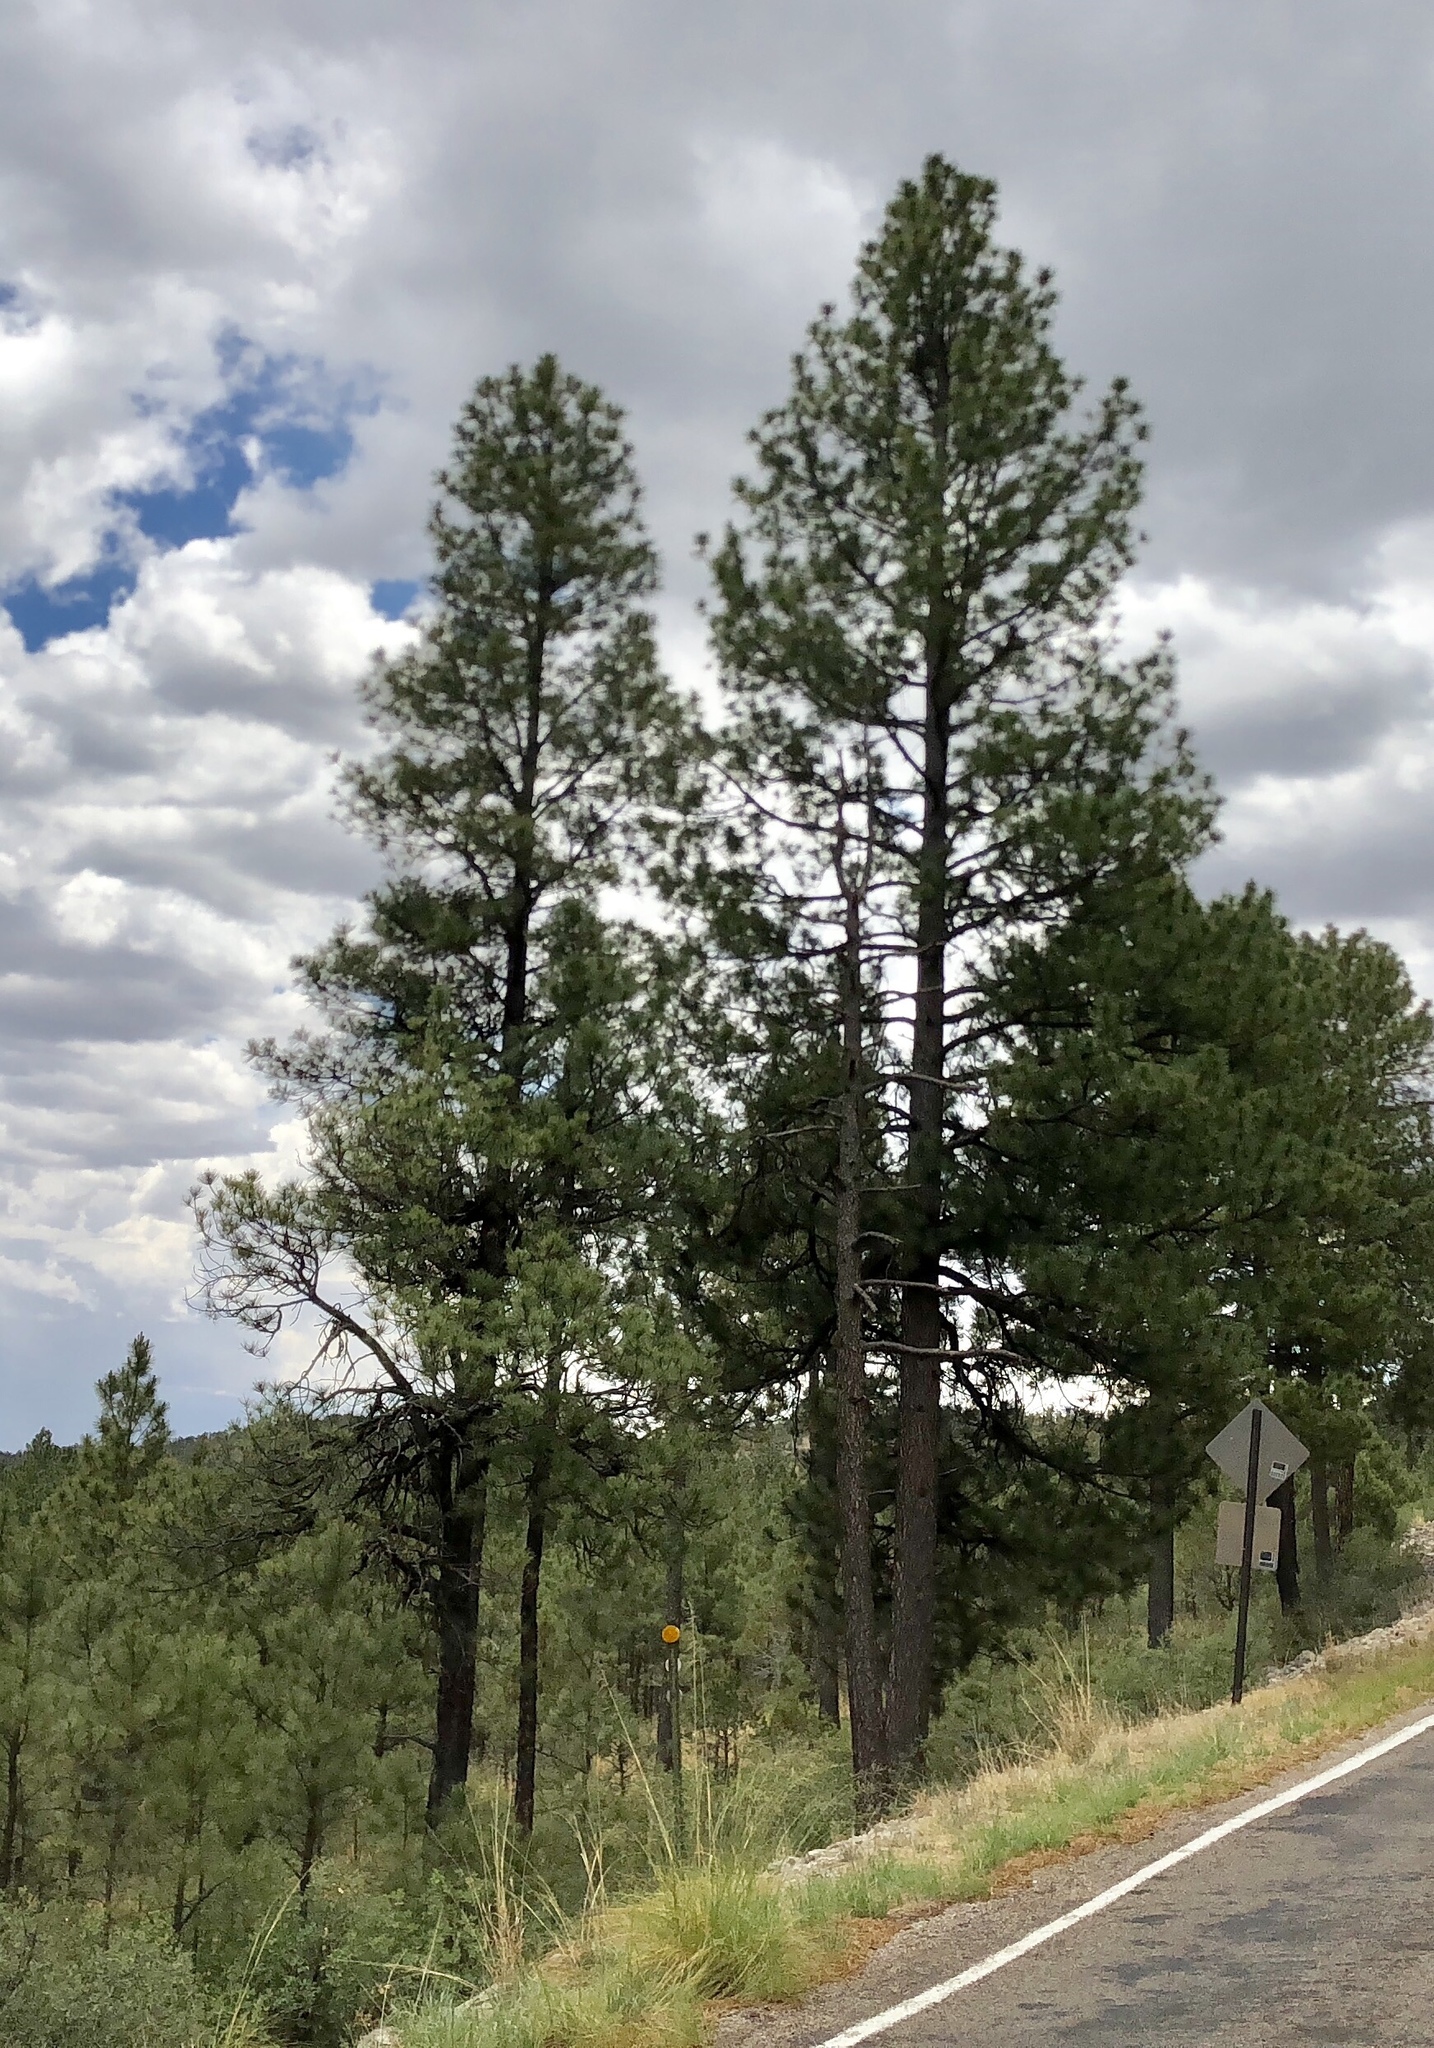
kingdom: Plantae
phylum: Tracheophyta
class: Pinopsida
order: Pinales
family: Pinaceae
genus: Pinus
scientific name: Pinus ponderosa
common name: Western yellow-pine
